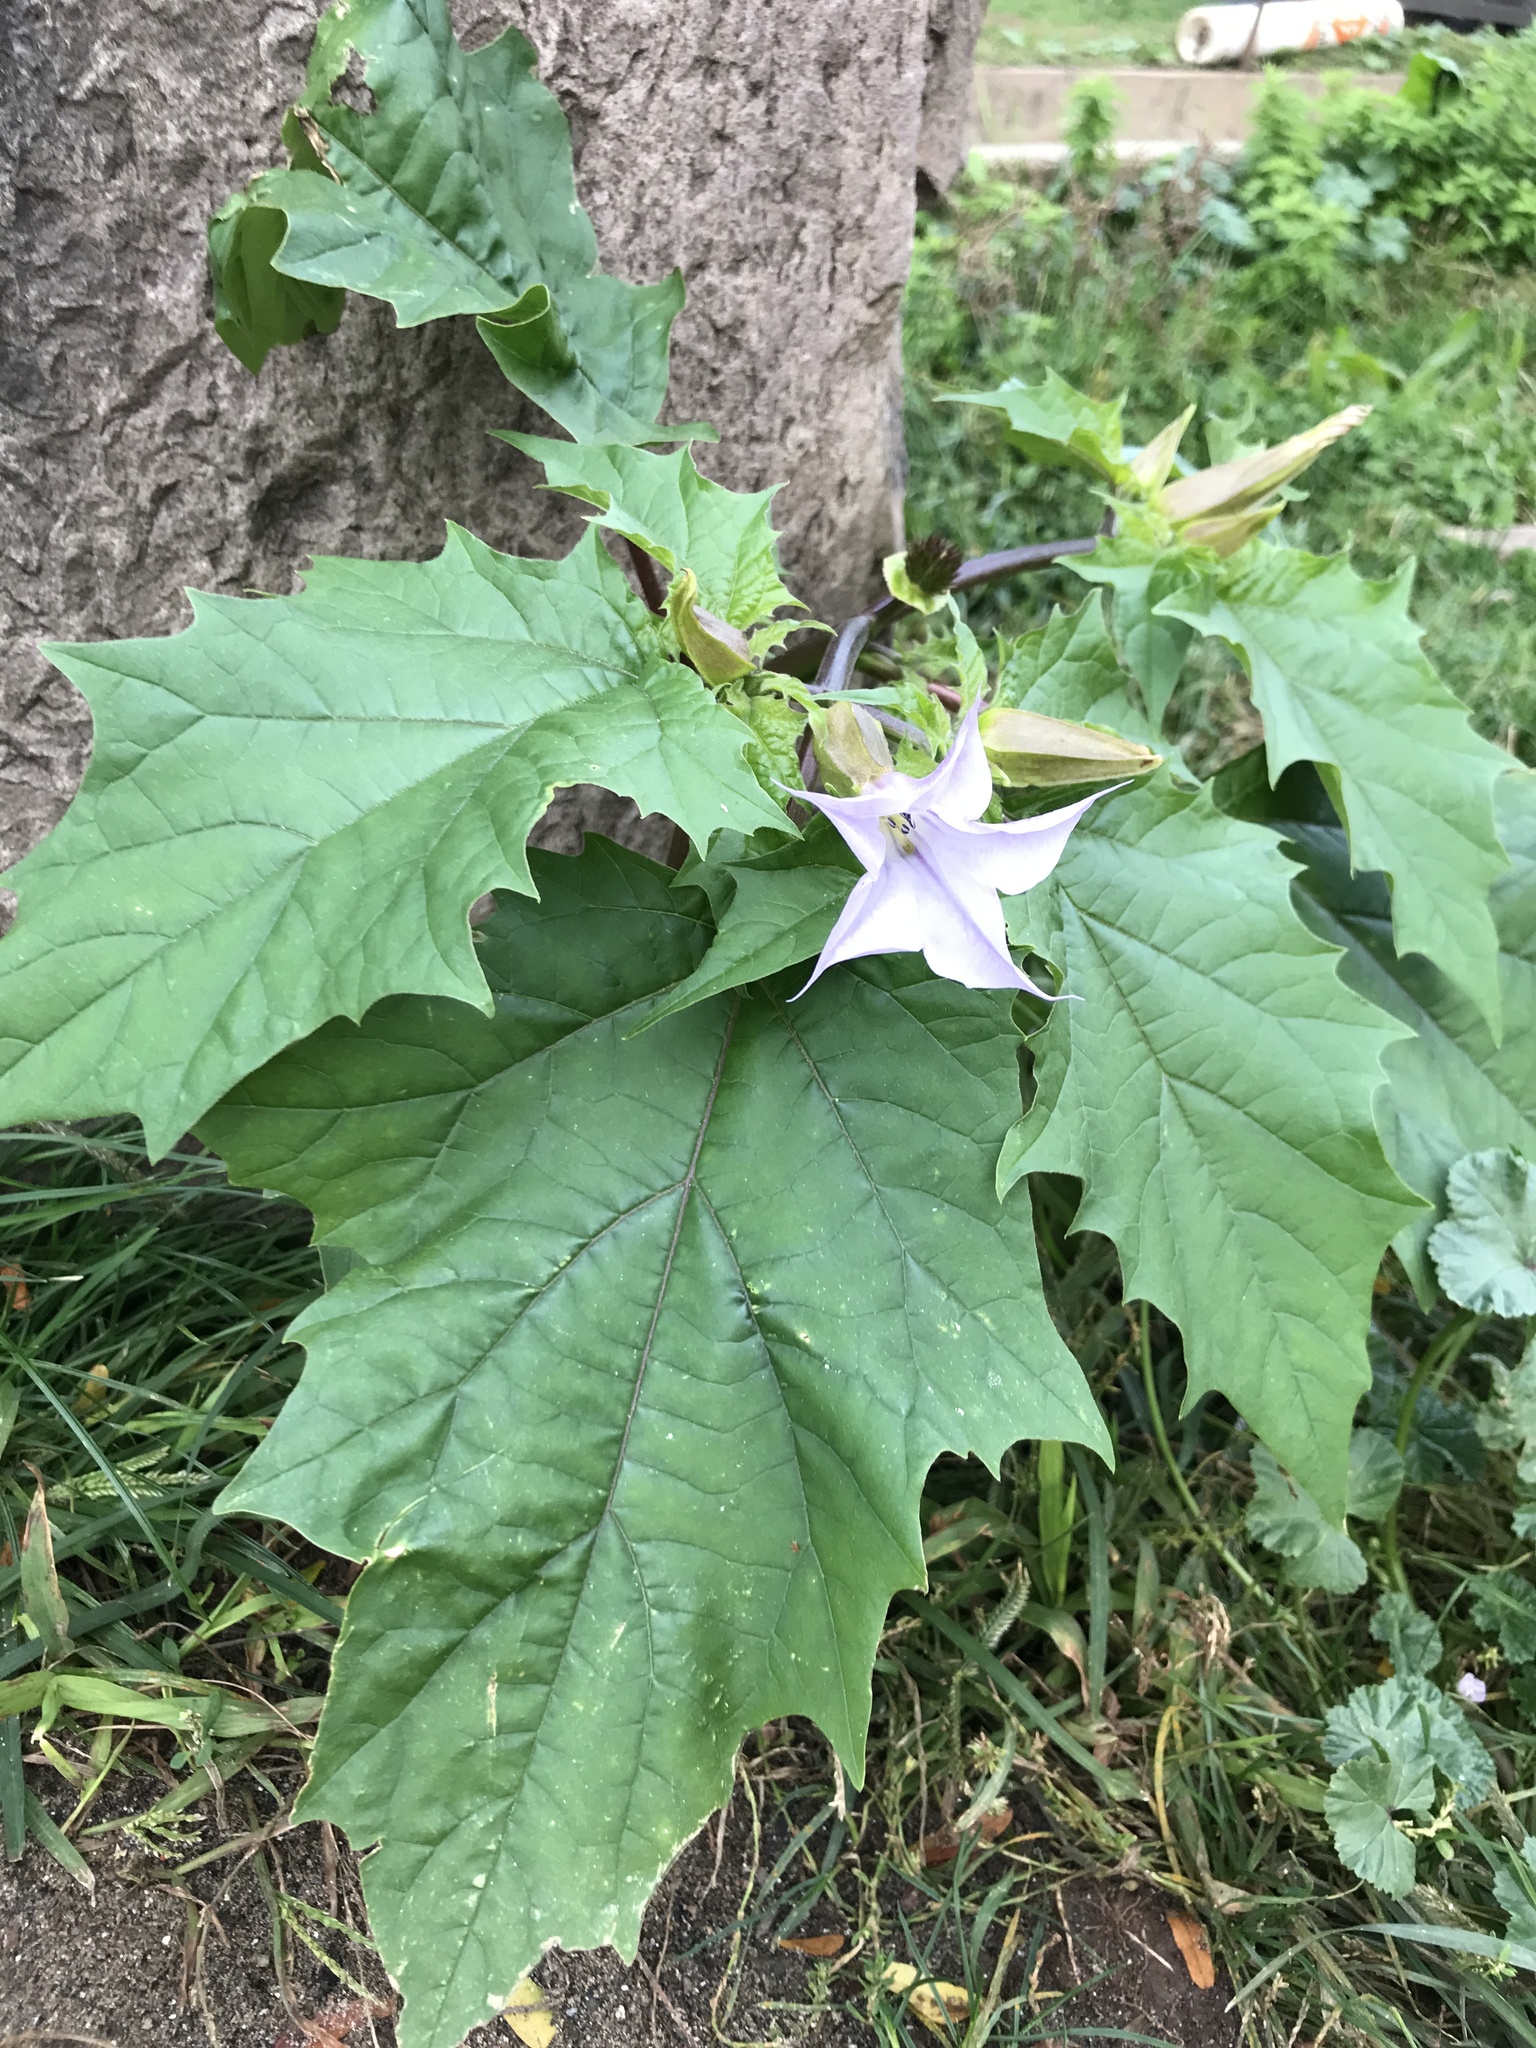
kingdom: Plantae
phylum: Tracheophyta
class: Magnoliopsida
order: Solanales
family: Solanaceae
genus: Datura
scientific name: Datura stramonium
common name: Thorn-apple
